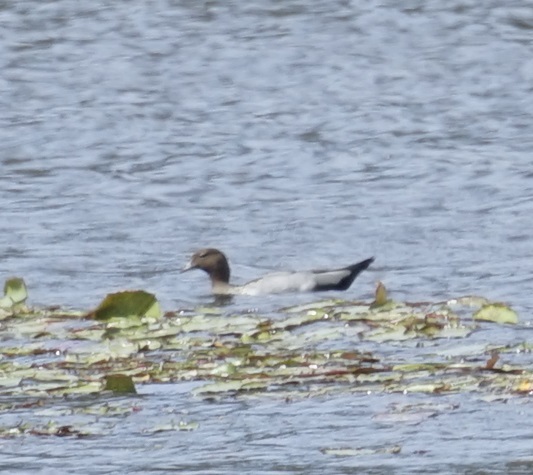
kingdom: Animalia
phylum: Chordata
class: Aves
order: Anseriformes
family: Anatidae
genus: Chenonetta
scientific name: Chenonetta jubata
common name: Maned duck
